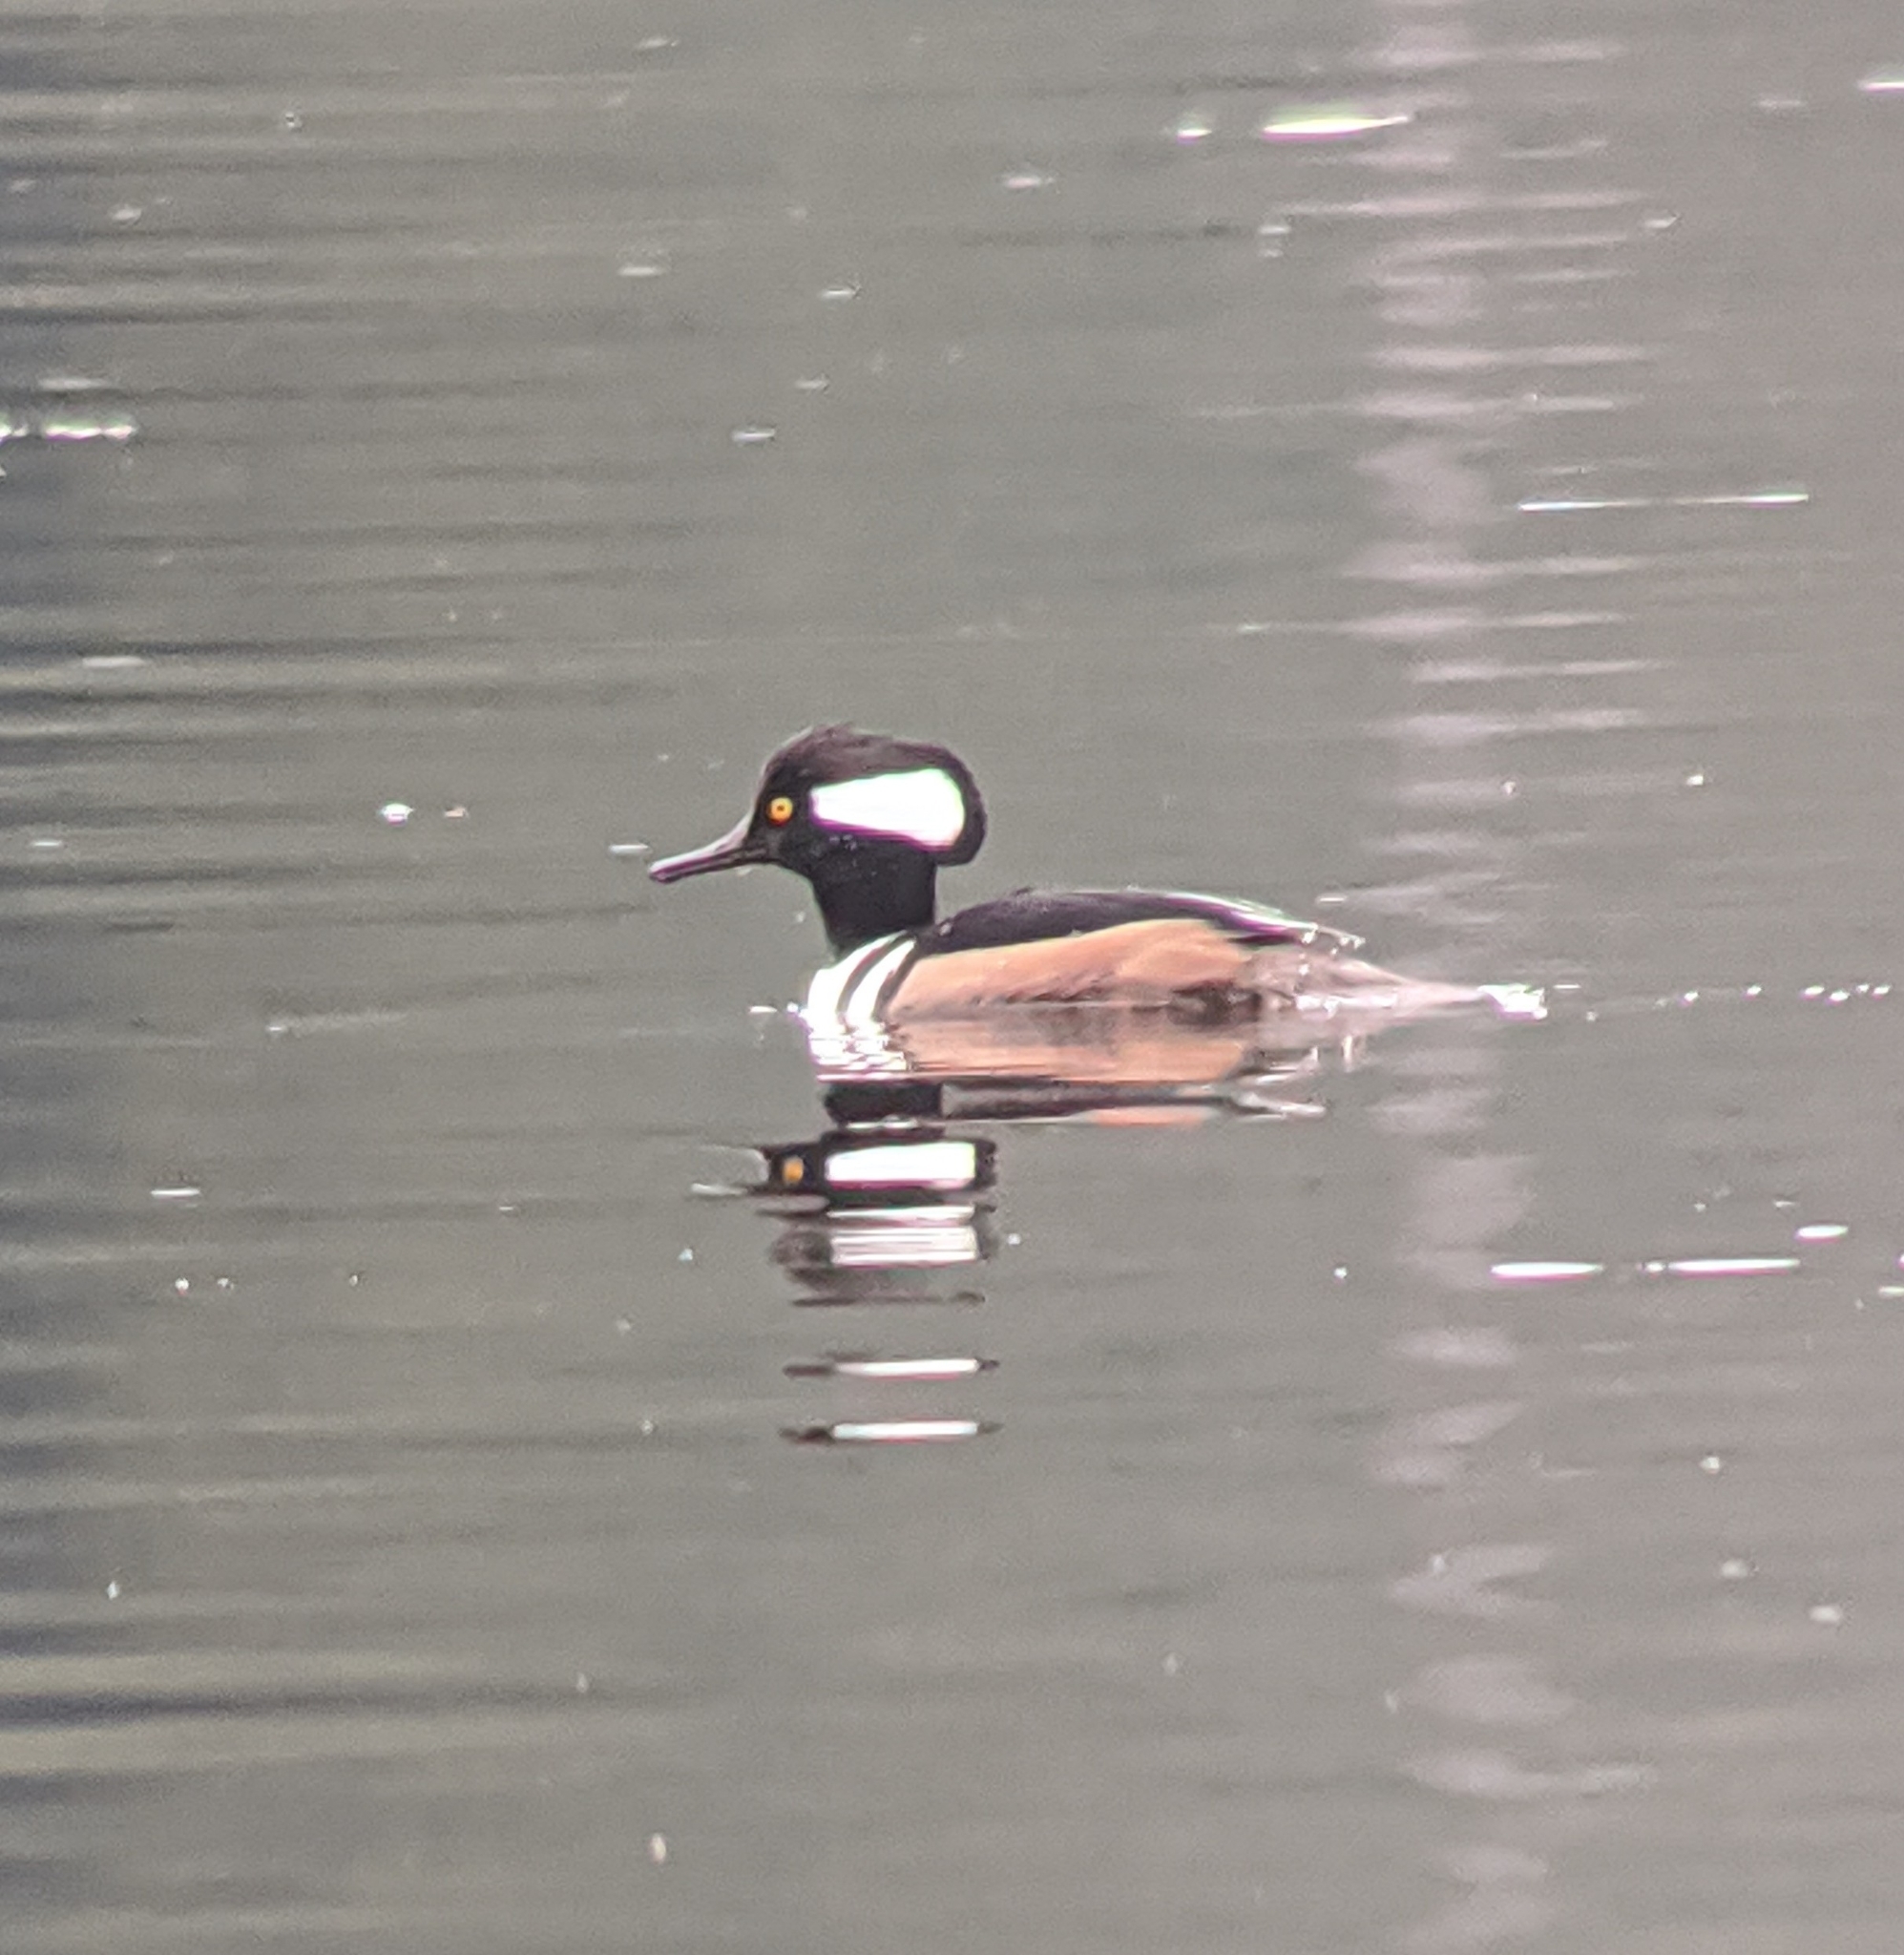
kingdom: Animalia
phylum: Chordata
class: Aves
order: Anseriformes
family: Anatidae
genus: Lophodytes
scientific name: Lophodytes cucullatus
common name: Hooded merganser
